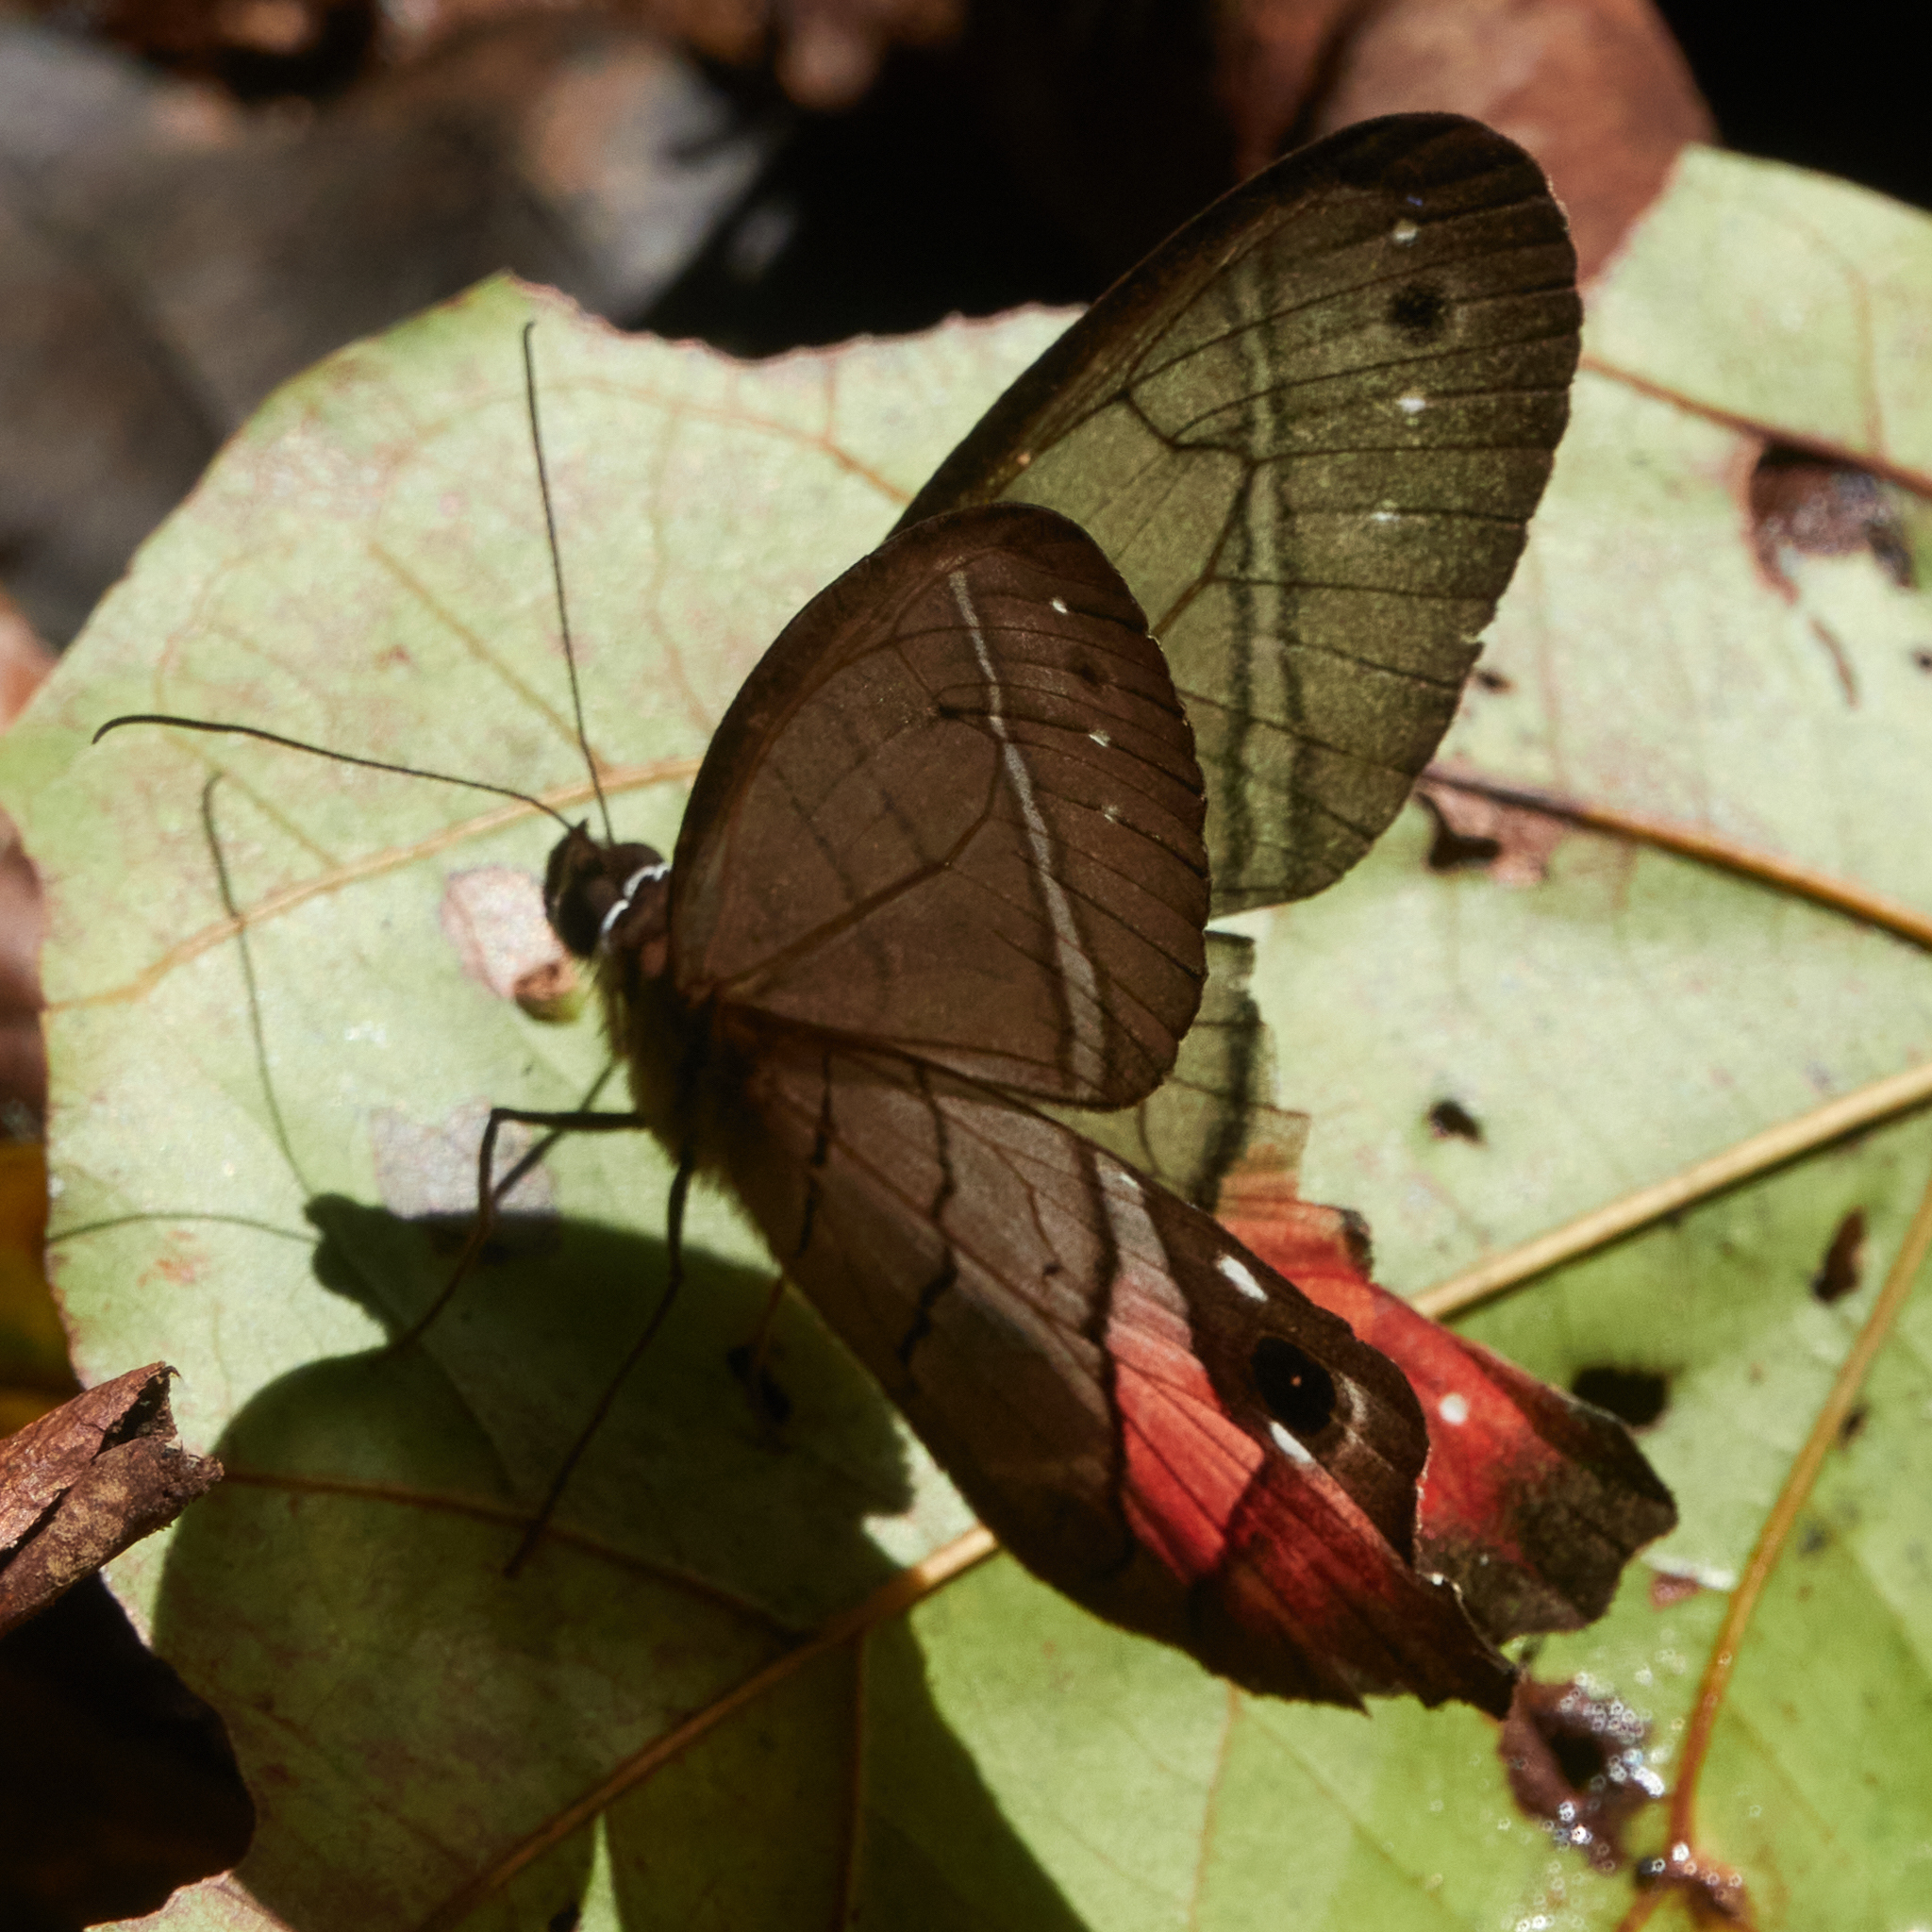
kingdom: Animalia
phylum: Arthropoda
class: Insecta
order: Lepidoptera
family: Nymphalidae
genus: Pierella
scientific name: Pierella helvina
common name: Red-washed satyr
